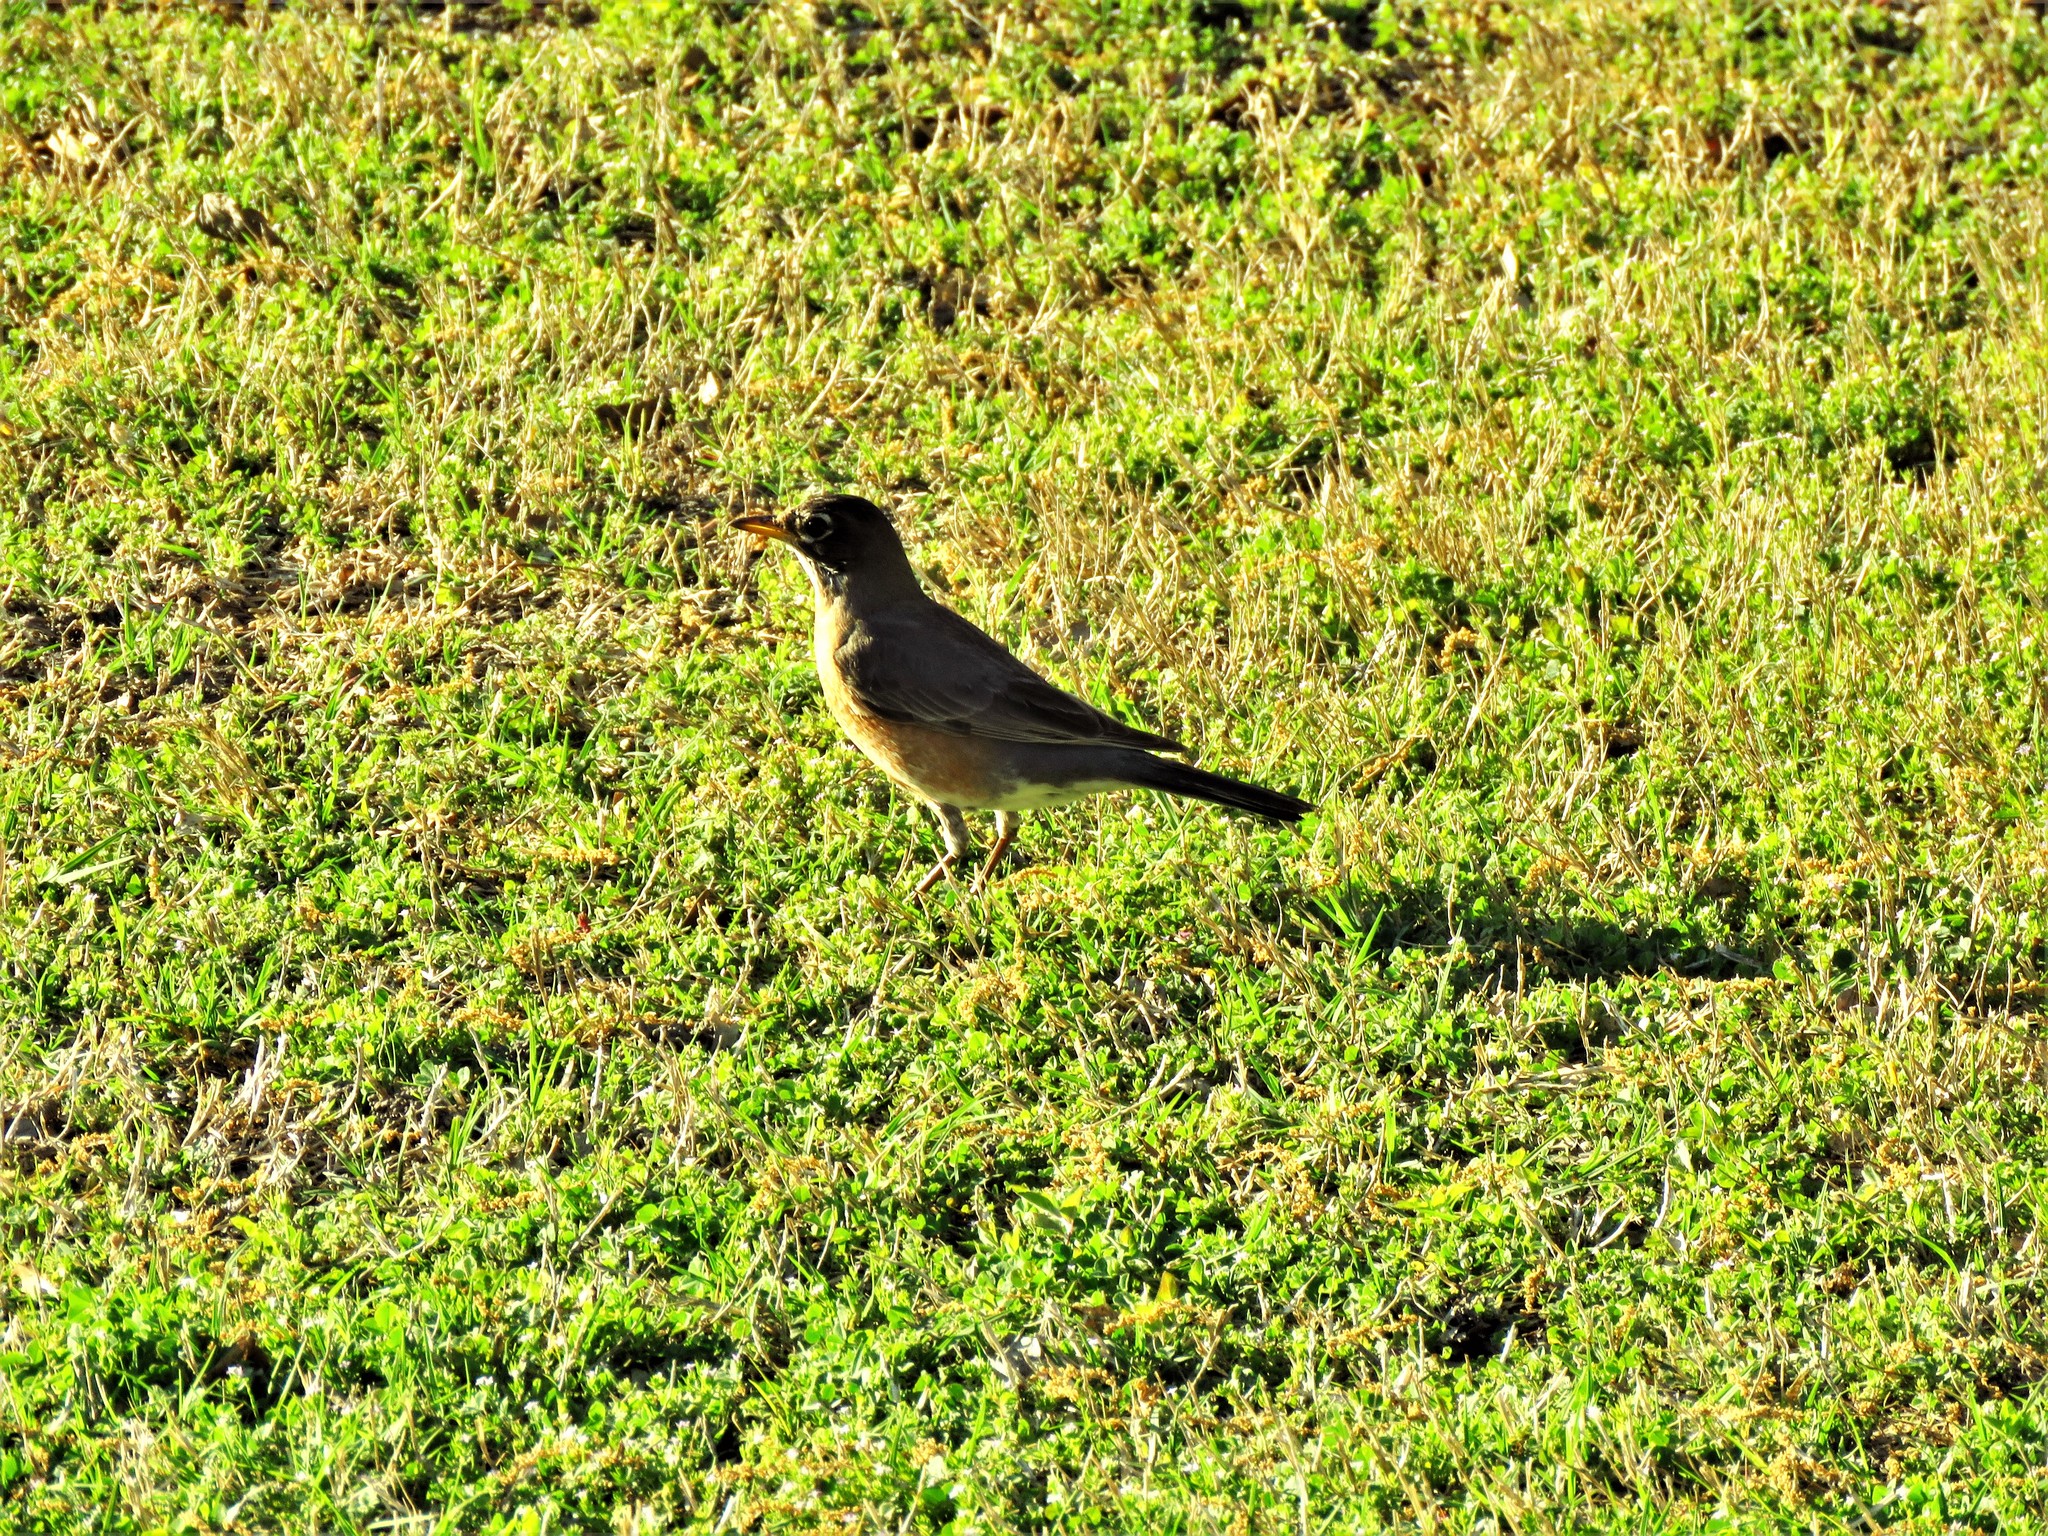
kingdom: Animalia
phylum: Chordata
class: Aves
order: Passeriformes
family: Turdidae
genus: Turdus
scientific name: Turdus migratorius
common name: American robin
